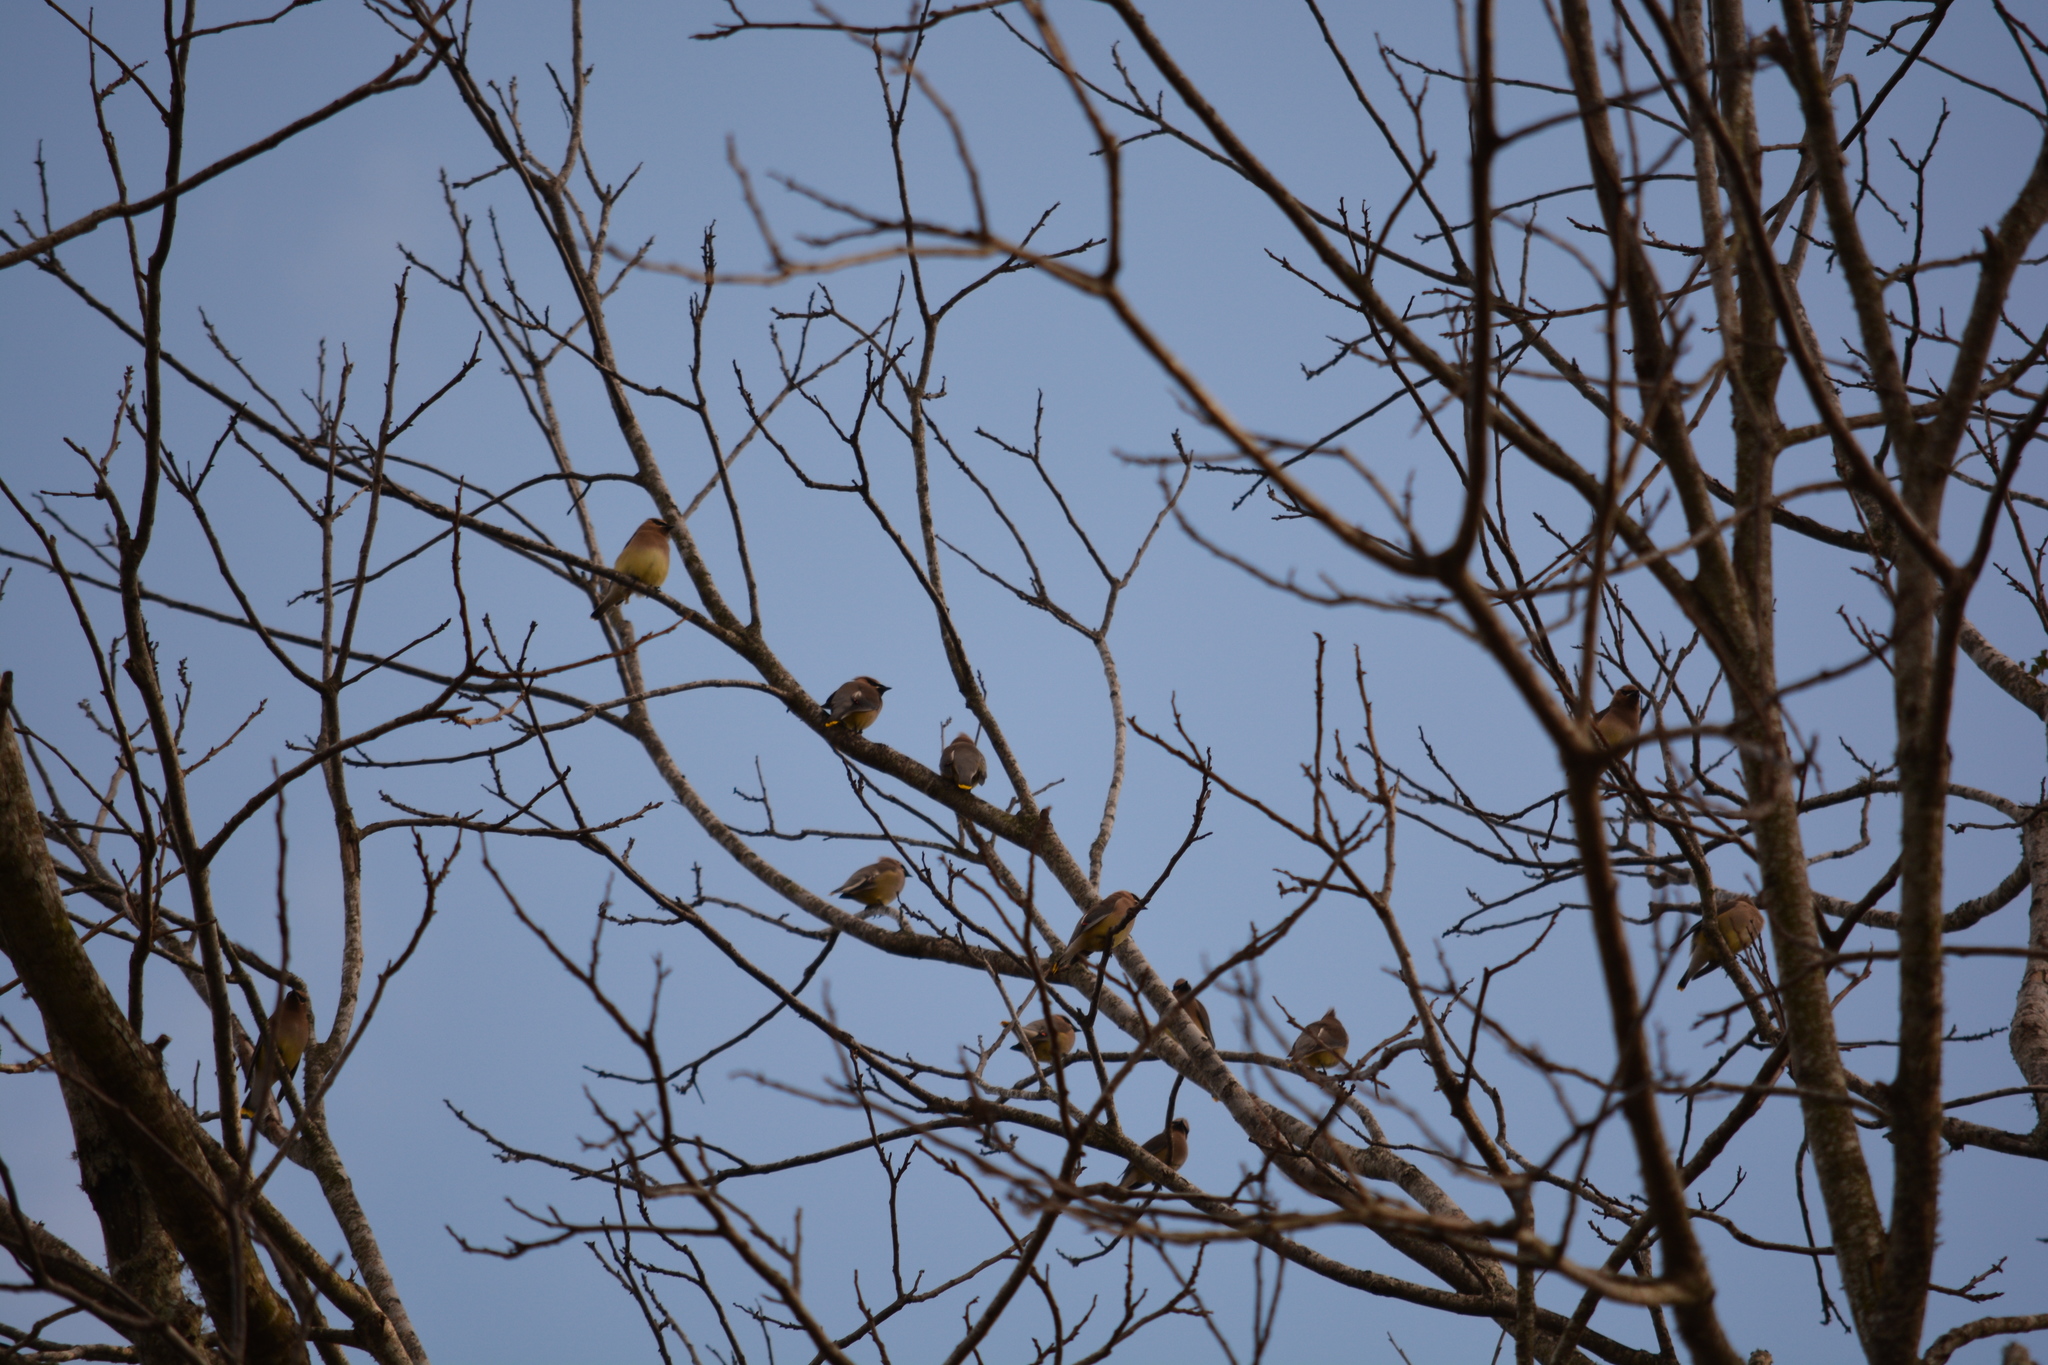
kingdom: Animalia
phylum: Chordata
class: Aves
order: Passeriformes
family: Bombycillidae
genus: Bombycilla
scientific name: Bombycilla cedrorum
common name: Cedar waxwing
